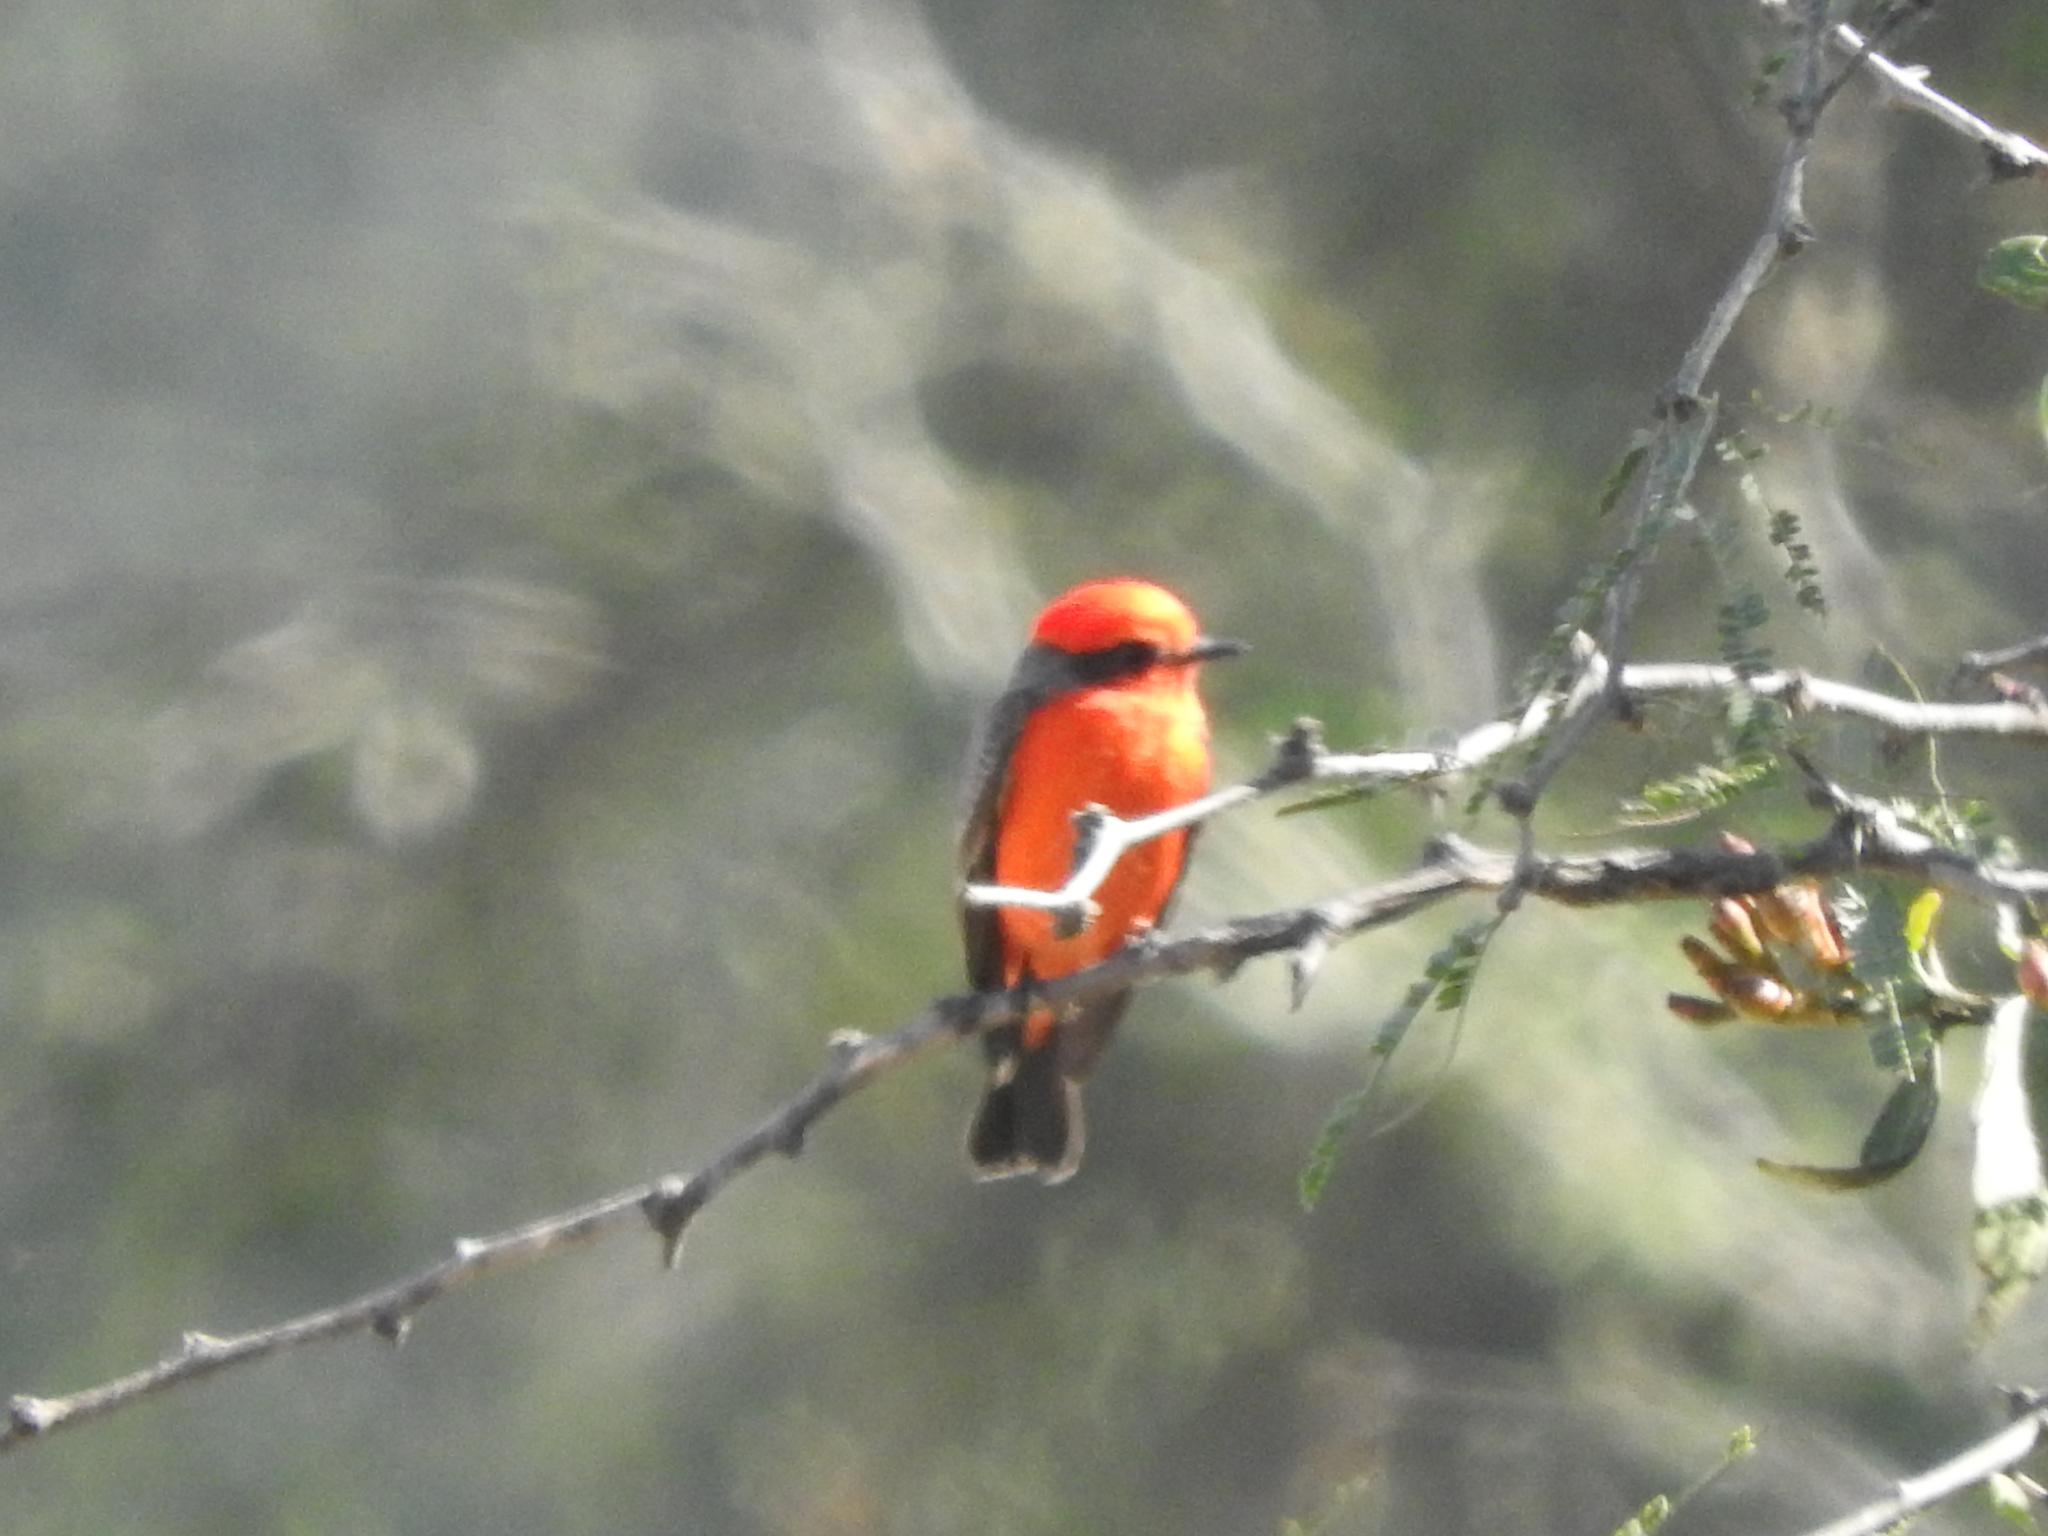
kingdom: Animalia
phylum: Chordata
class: Aves
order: Passeriformes
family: Tyrannidae
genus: Pyrocephalus
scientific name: Pyrocephalus rubinus
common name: Vermilion flycatcher
